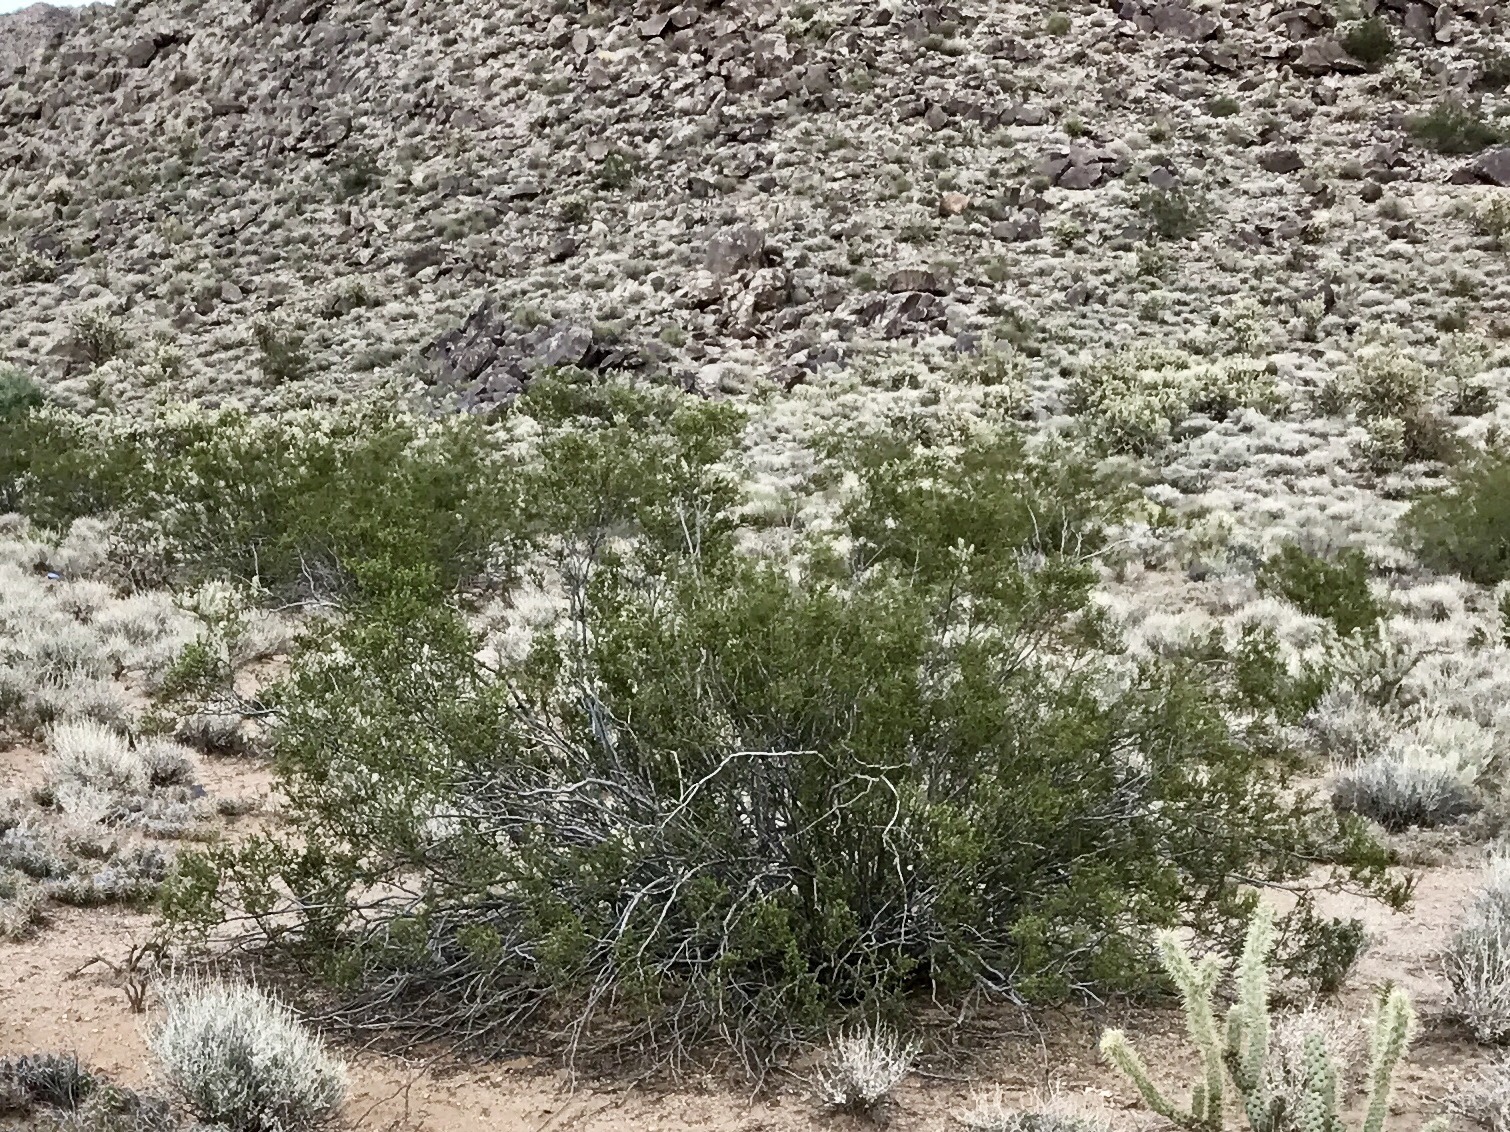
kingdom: Plantae
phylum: Tracheophyta
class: Magnoliopsida
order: Zygophyllales
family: Zygophyllaceae
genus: Larrea
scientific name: Larrea tridentata
